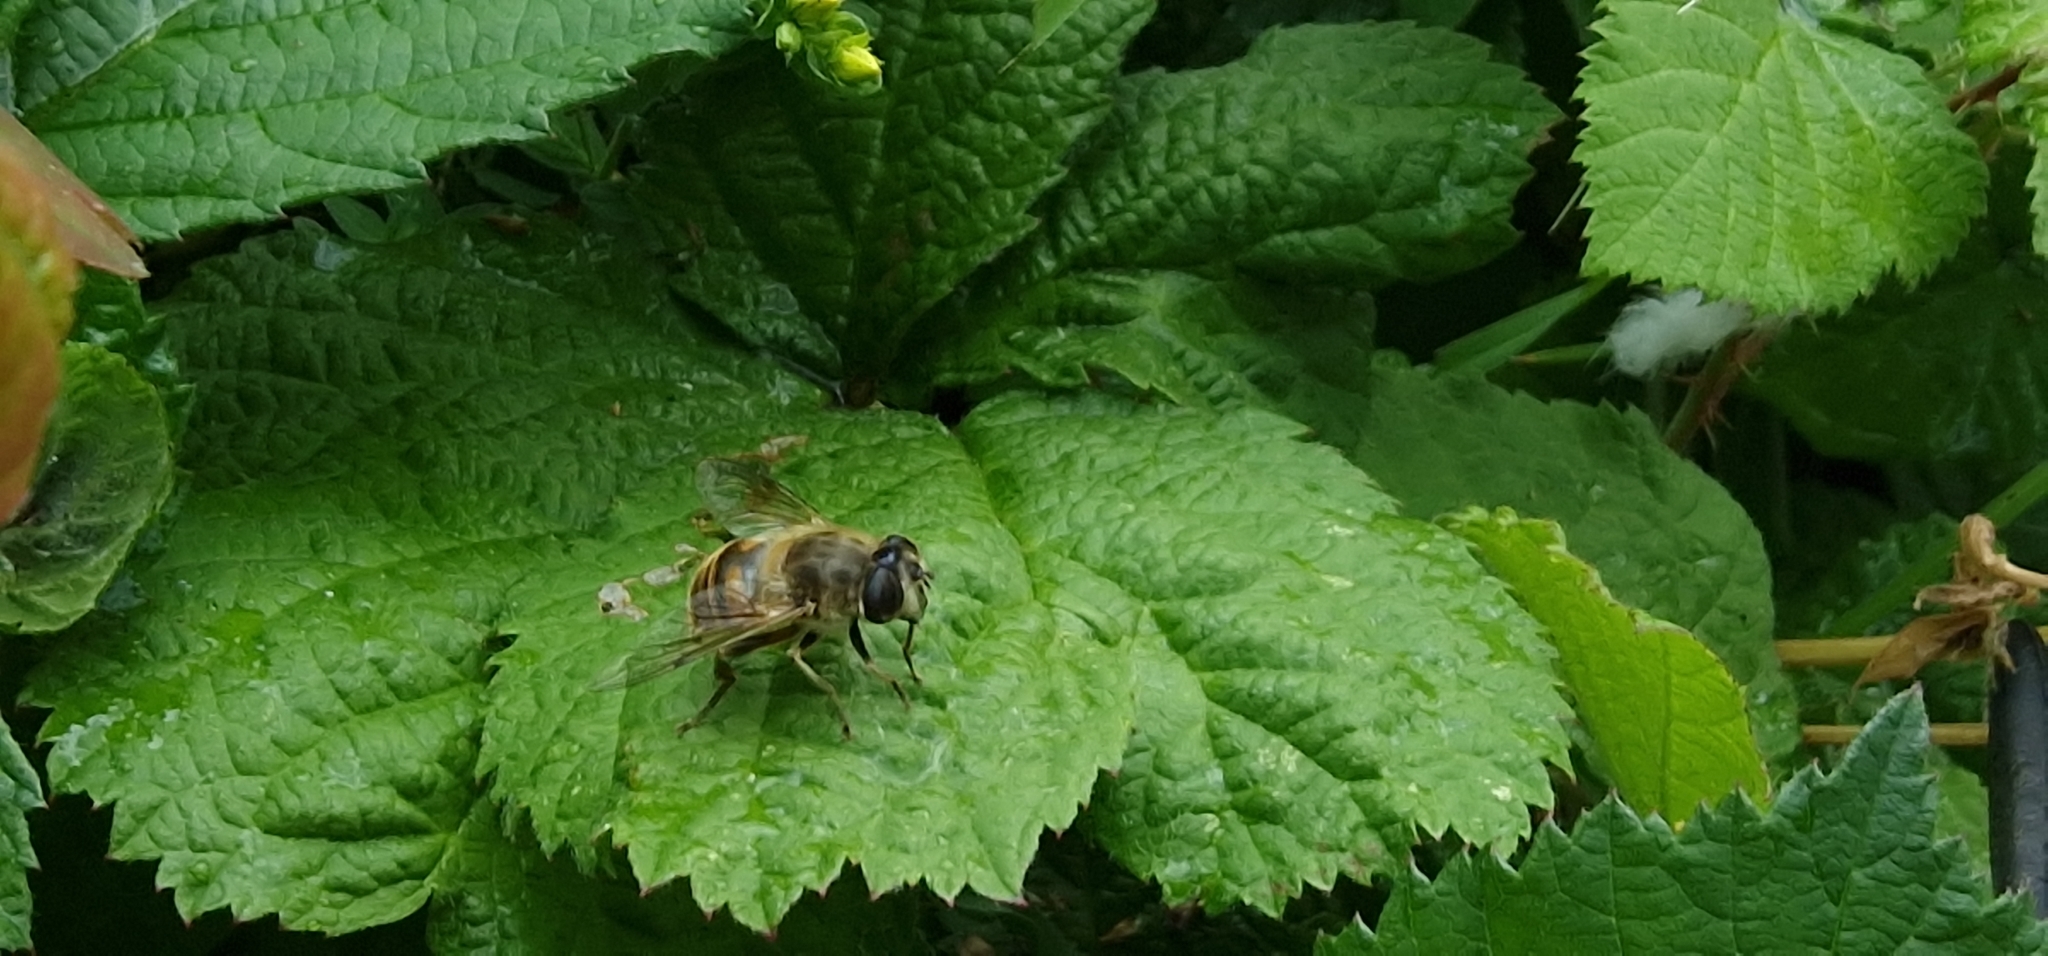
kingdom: Animalia
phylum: Arthropoda
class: Insecta
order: Diptera
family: Syrphidae
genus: Eristalis
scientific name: Eristalis tenax
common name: Drone fly
